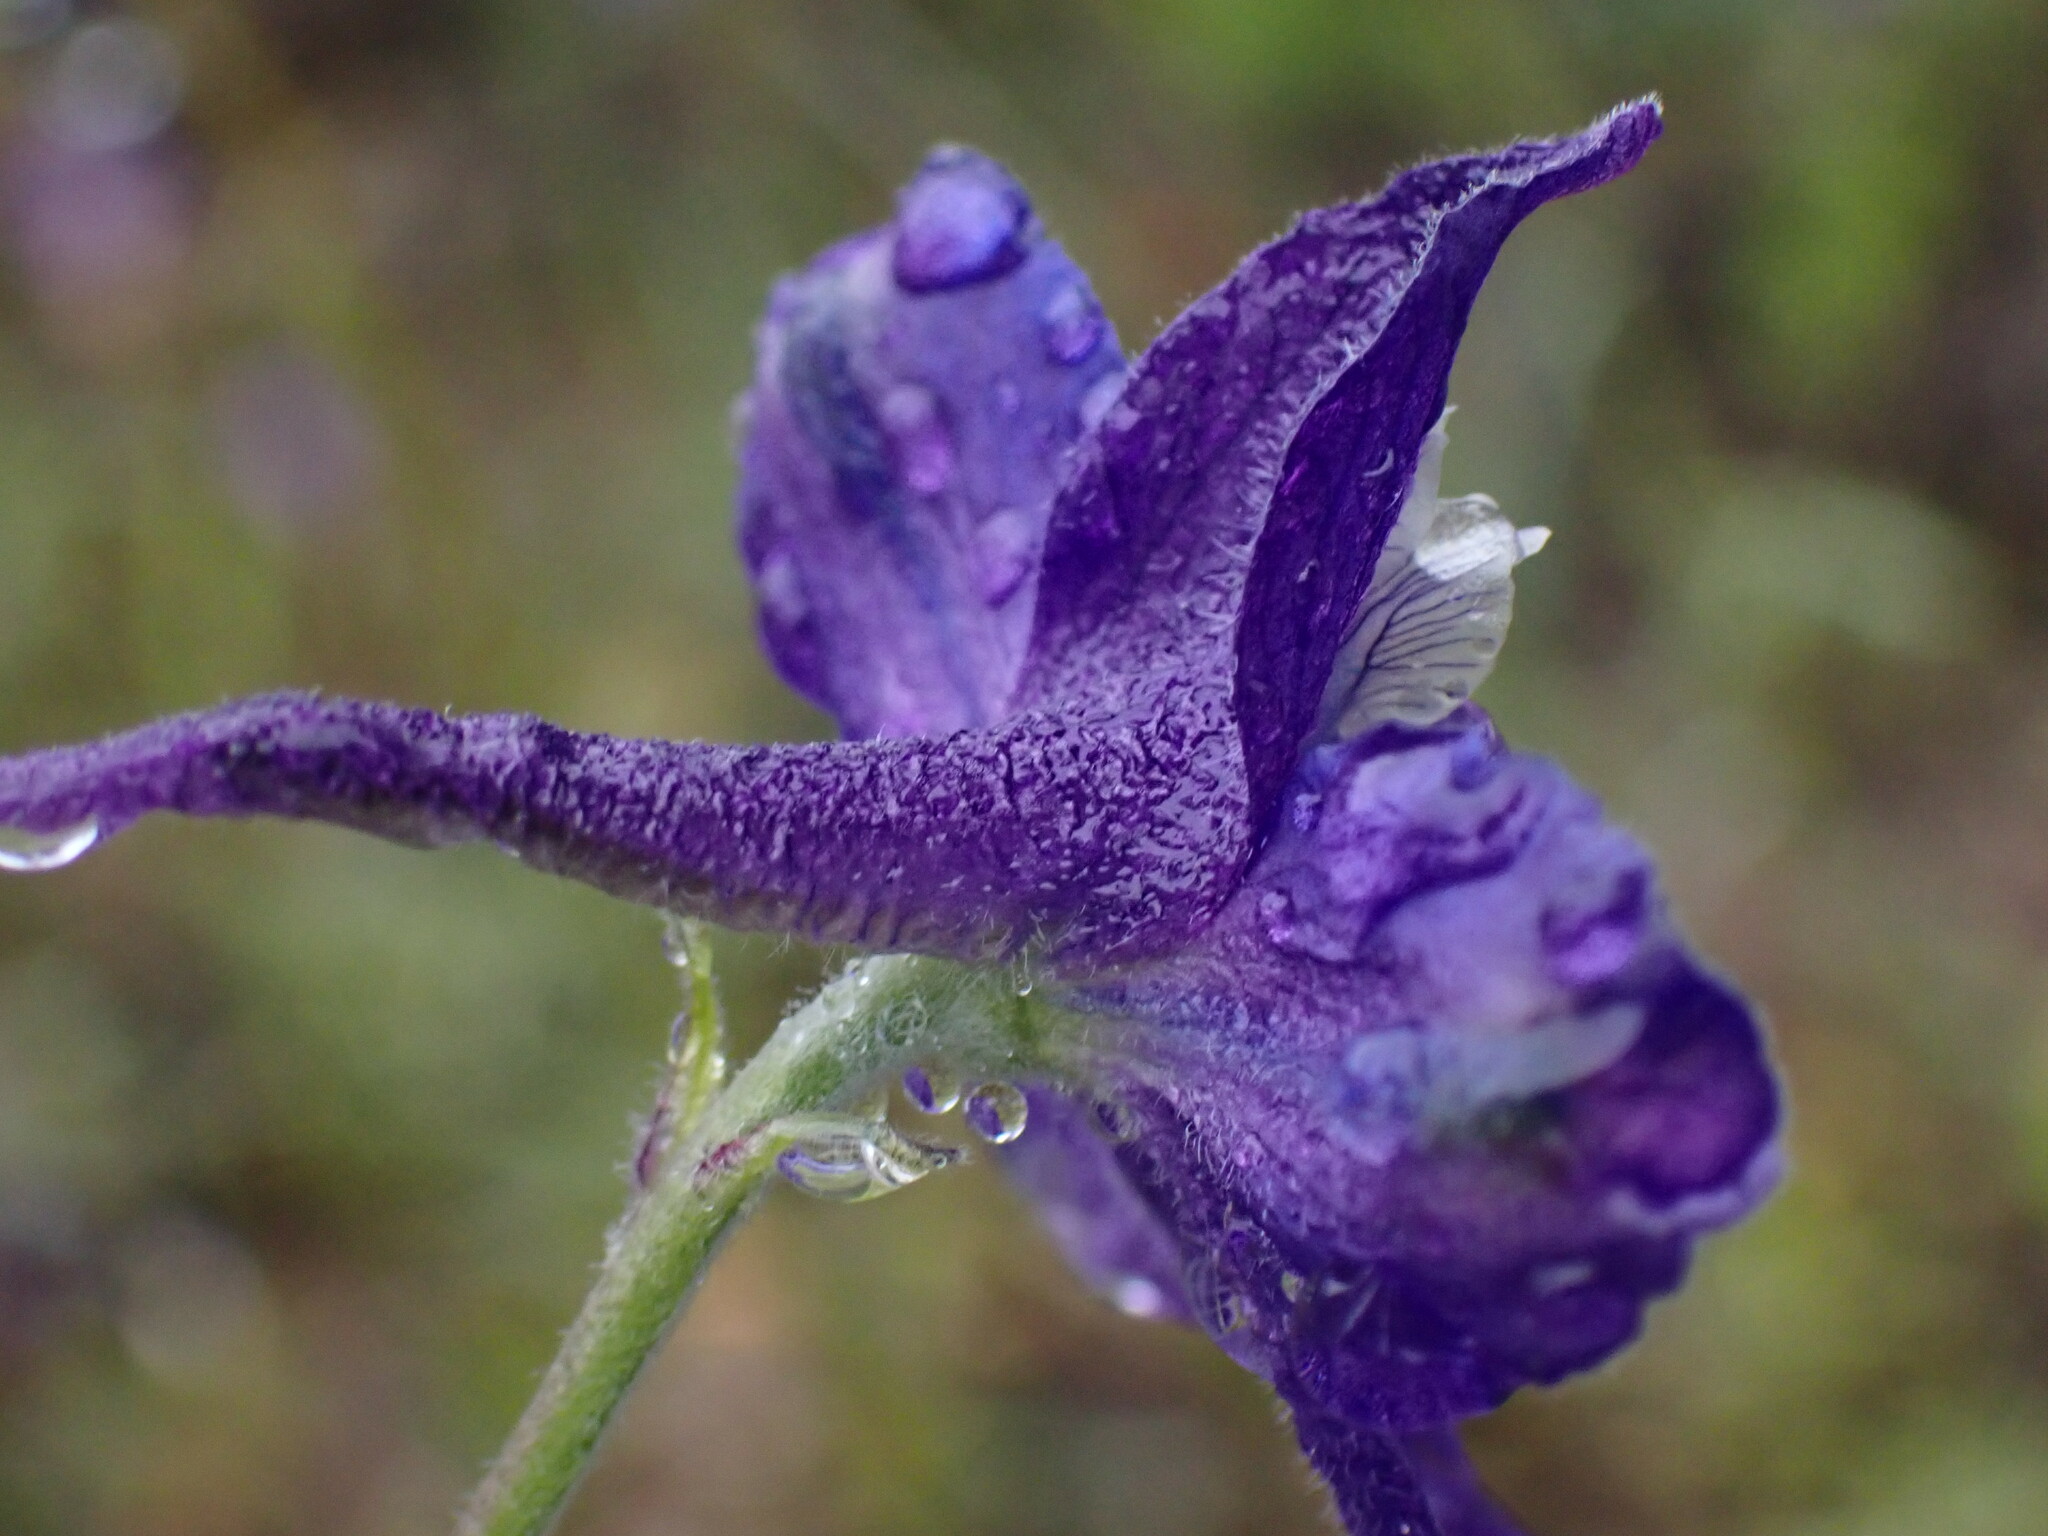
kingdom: Plantae
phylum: Tracheophyta
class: Magnoliopsida
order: Ranunculales
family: Ranunculaceae
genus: Delphinium
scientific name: Delphinium nuttallianum
